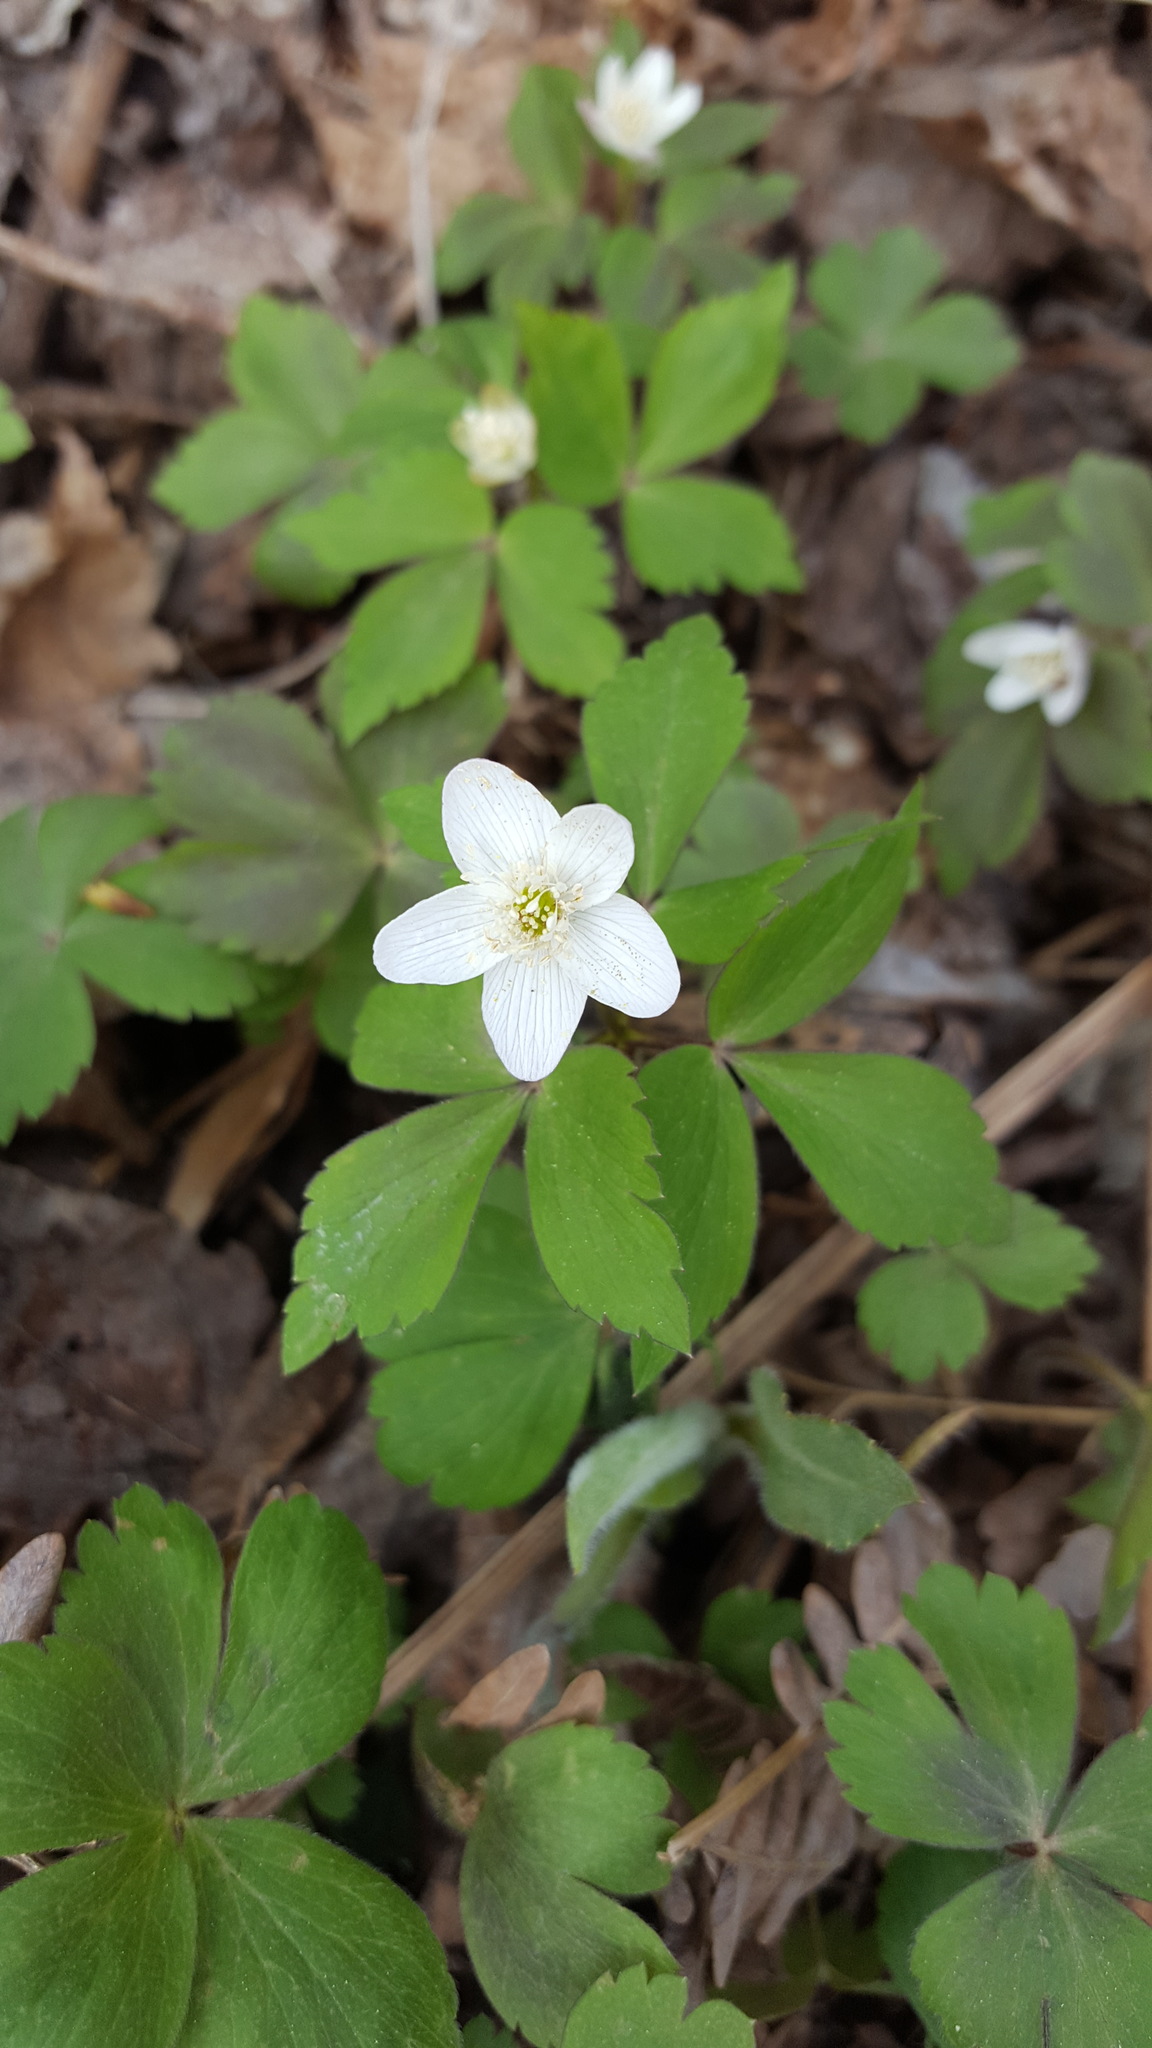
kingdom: Plantae
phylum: Tracheophyta
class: Magnoliopsida
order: Ranunculales
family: Ranunculaceae
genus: Anemone
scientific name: Anemone quinquefolia
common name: Wood anemone
